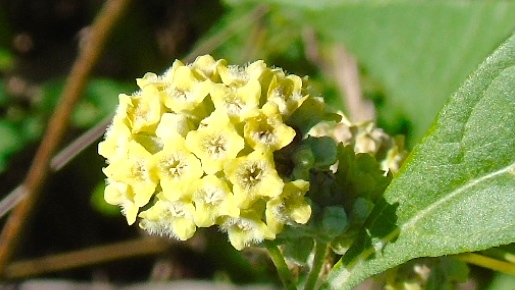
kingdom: Plantae
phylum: Tracheophyta
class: Magnoliopsida
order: Lamiales
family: Scrophulariaceae
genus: Buddleja
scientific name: Buddleja
